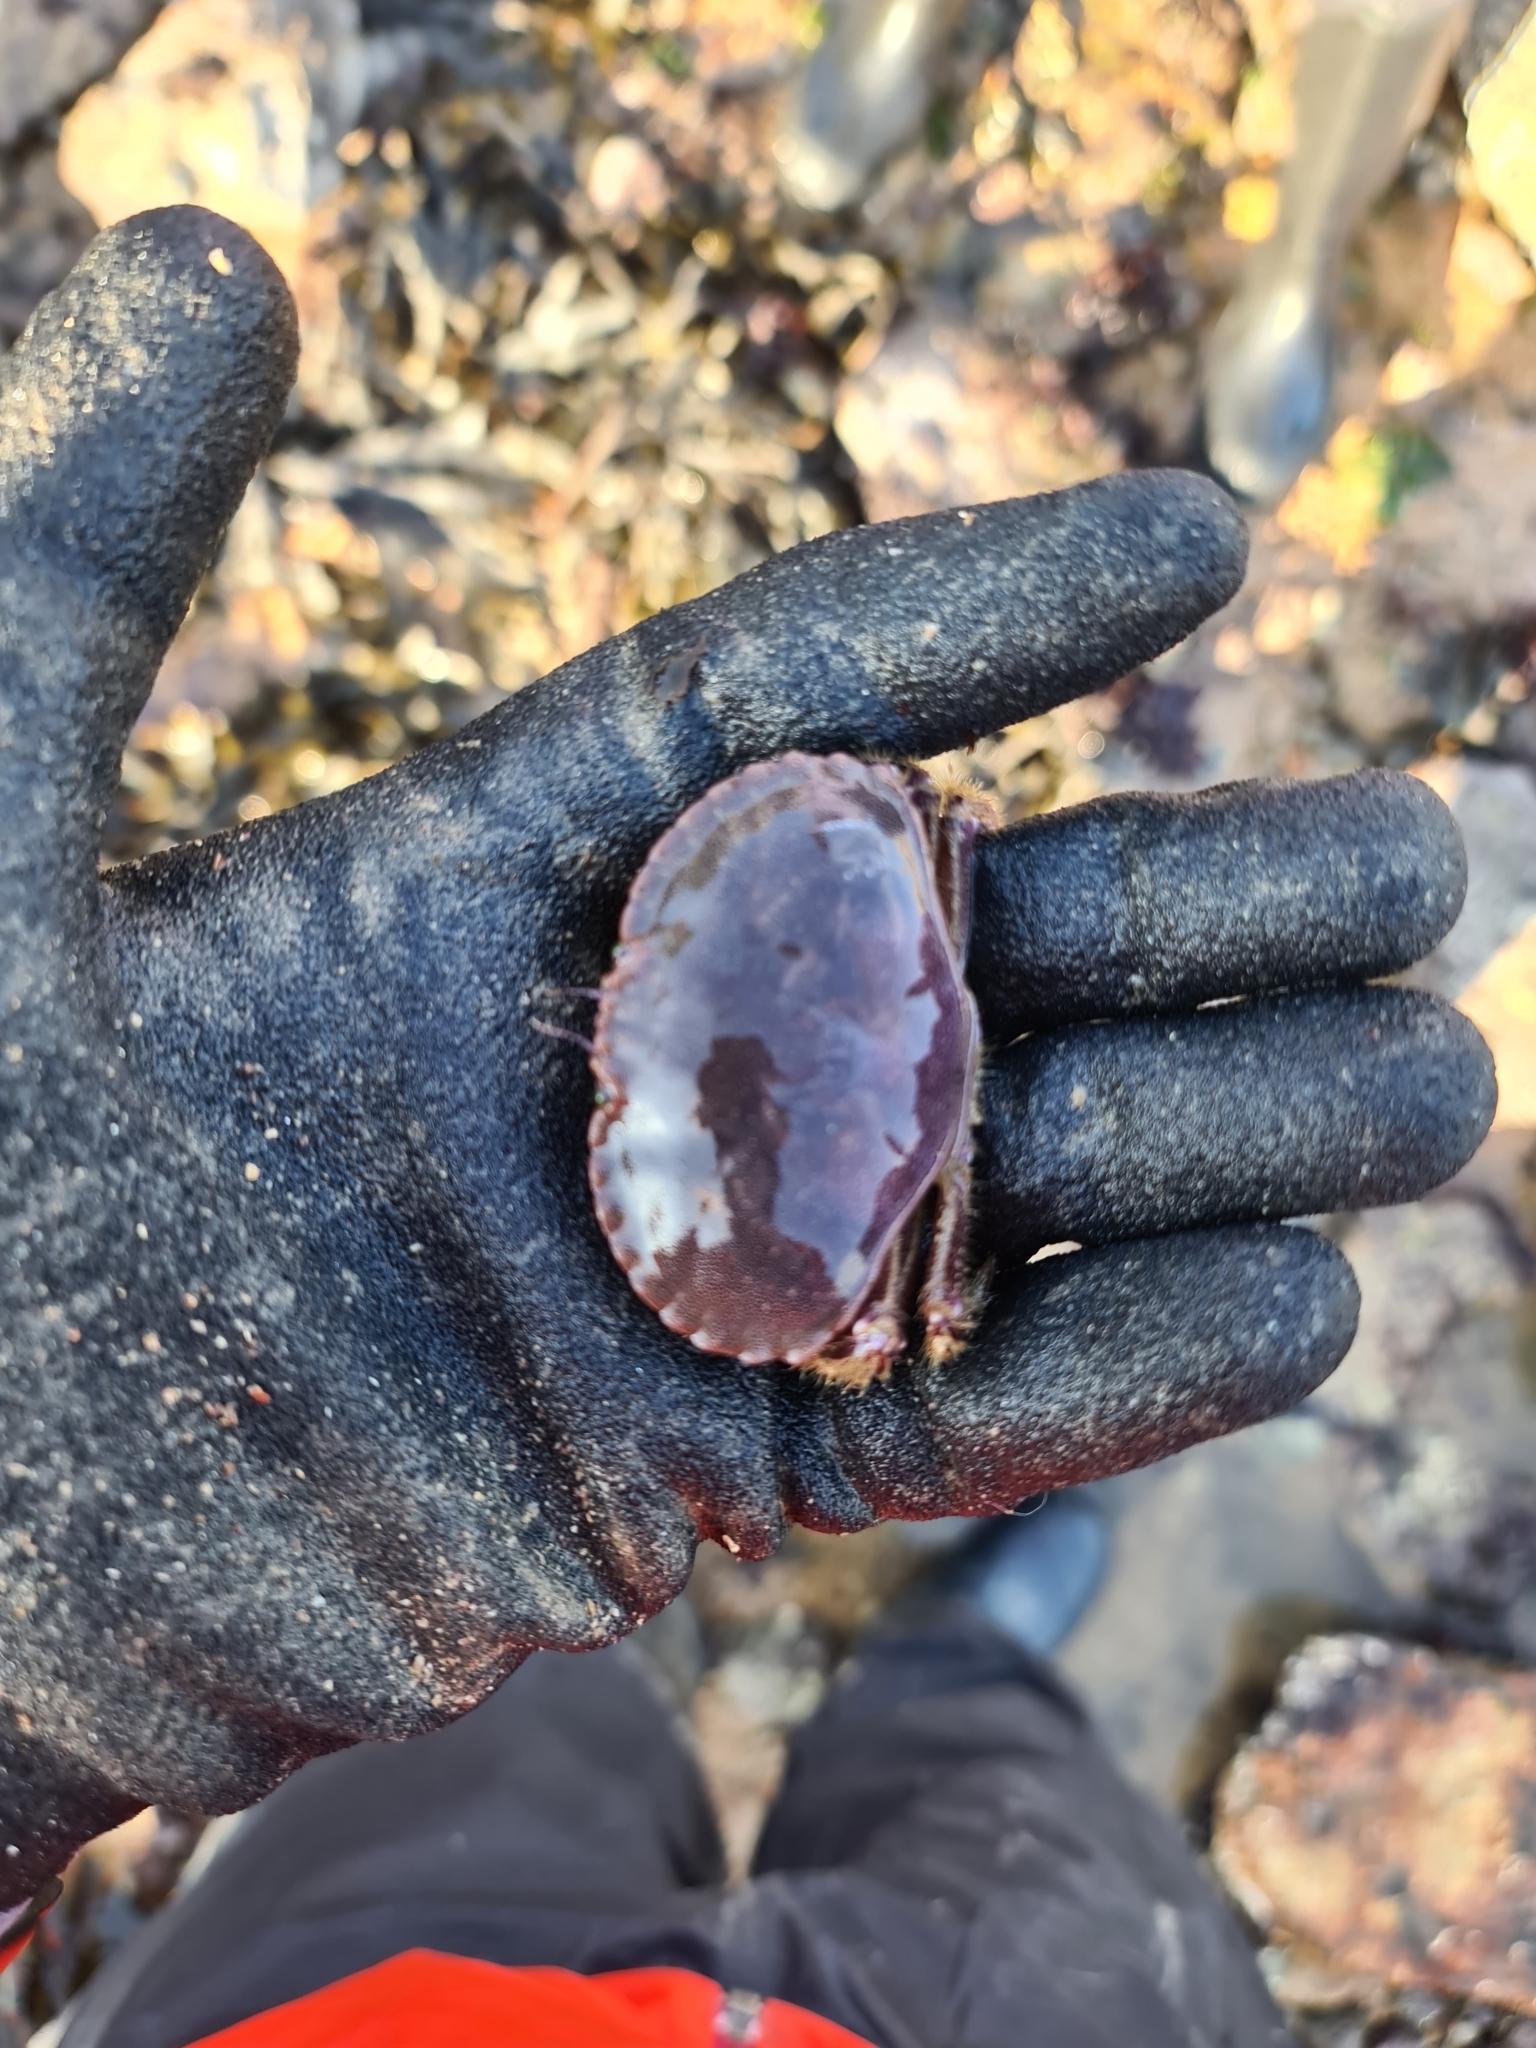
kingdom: Animalia
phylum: Arthropoda
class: Malacostraca
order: Decapoda
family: Cancridae
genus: Cancer
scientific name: Cancer pagurus
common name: Edible crab
